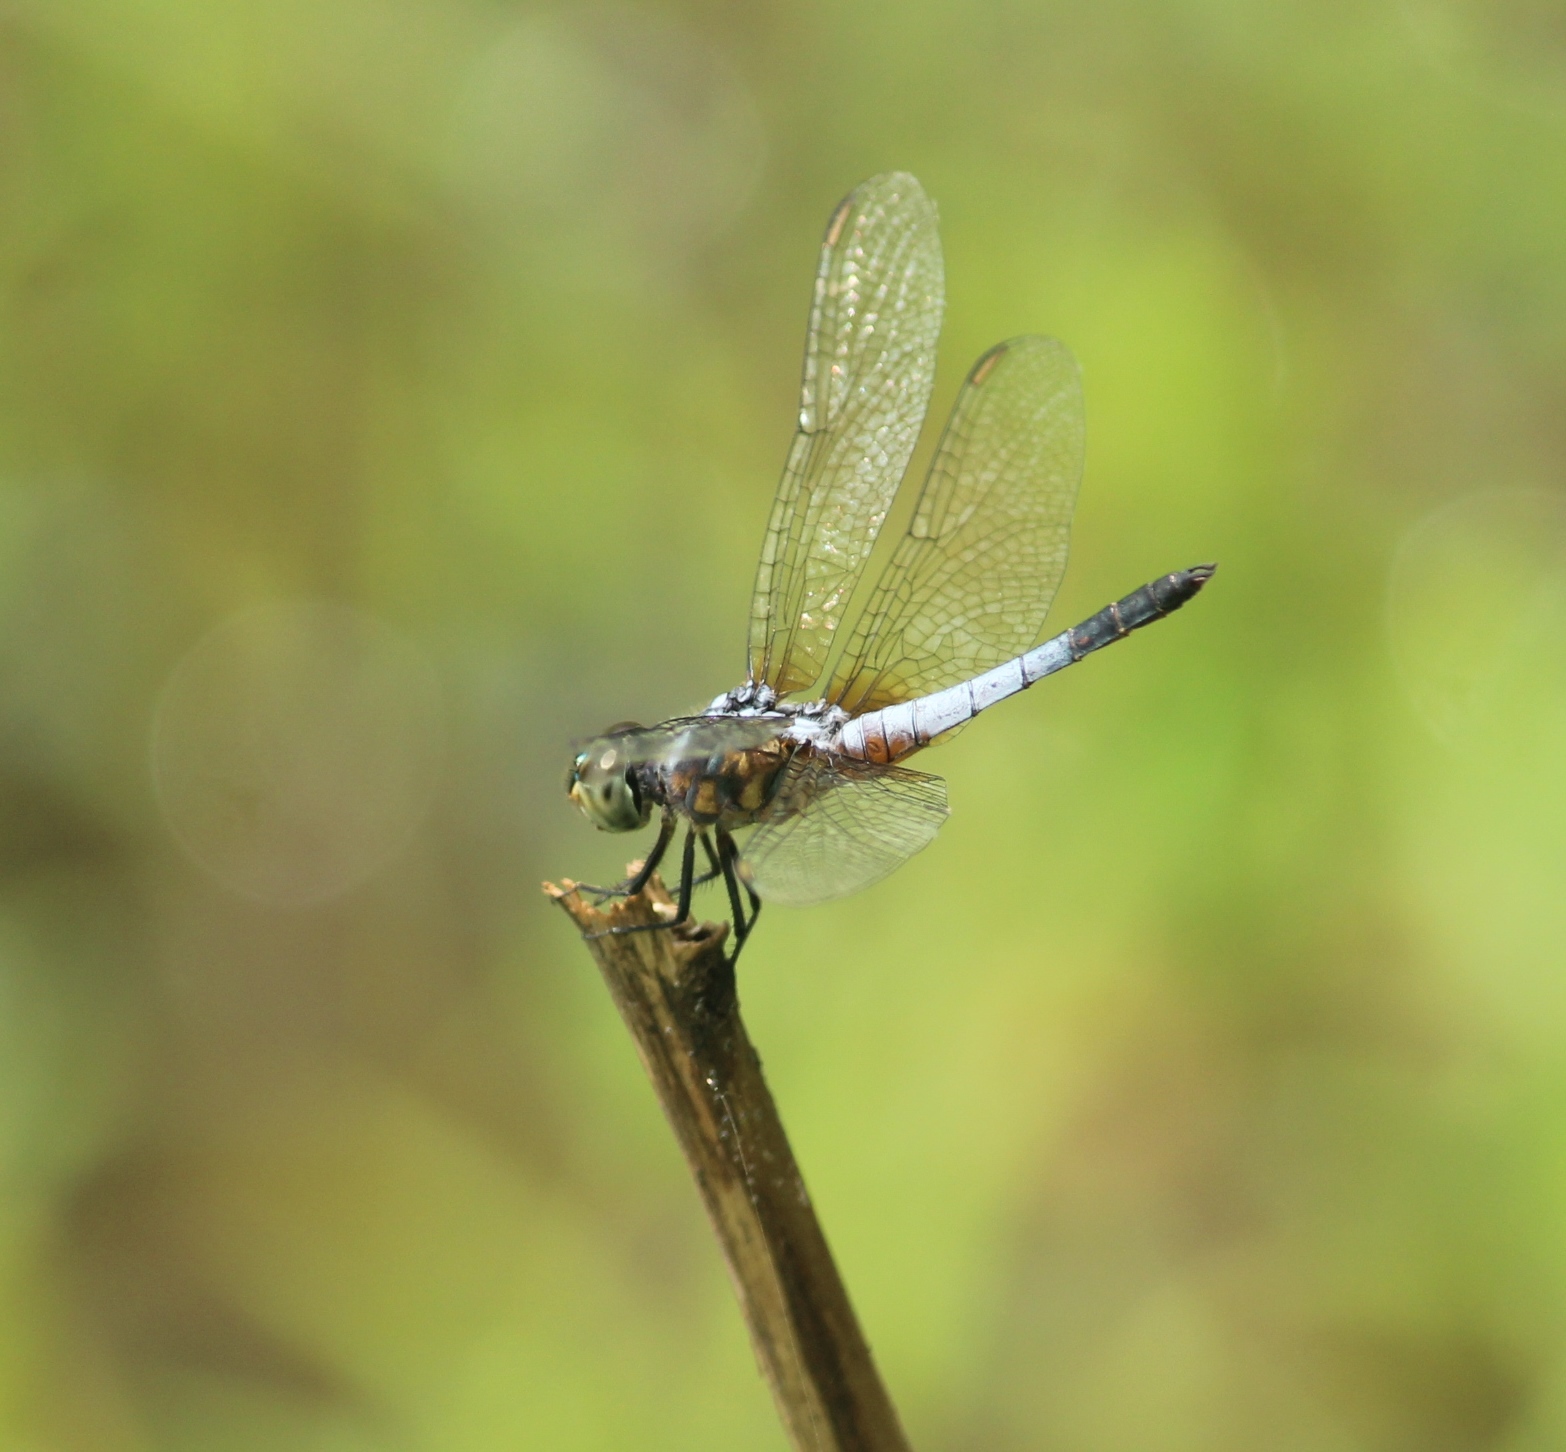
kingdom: Animalia
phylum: Arthropoda
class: Insecta
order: Odonata
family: Libellulidae
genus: Brachydiplax
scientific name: Brachydiplax chalybea
